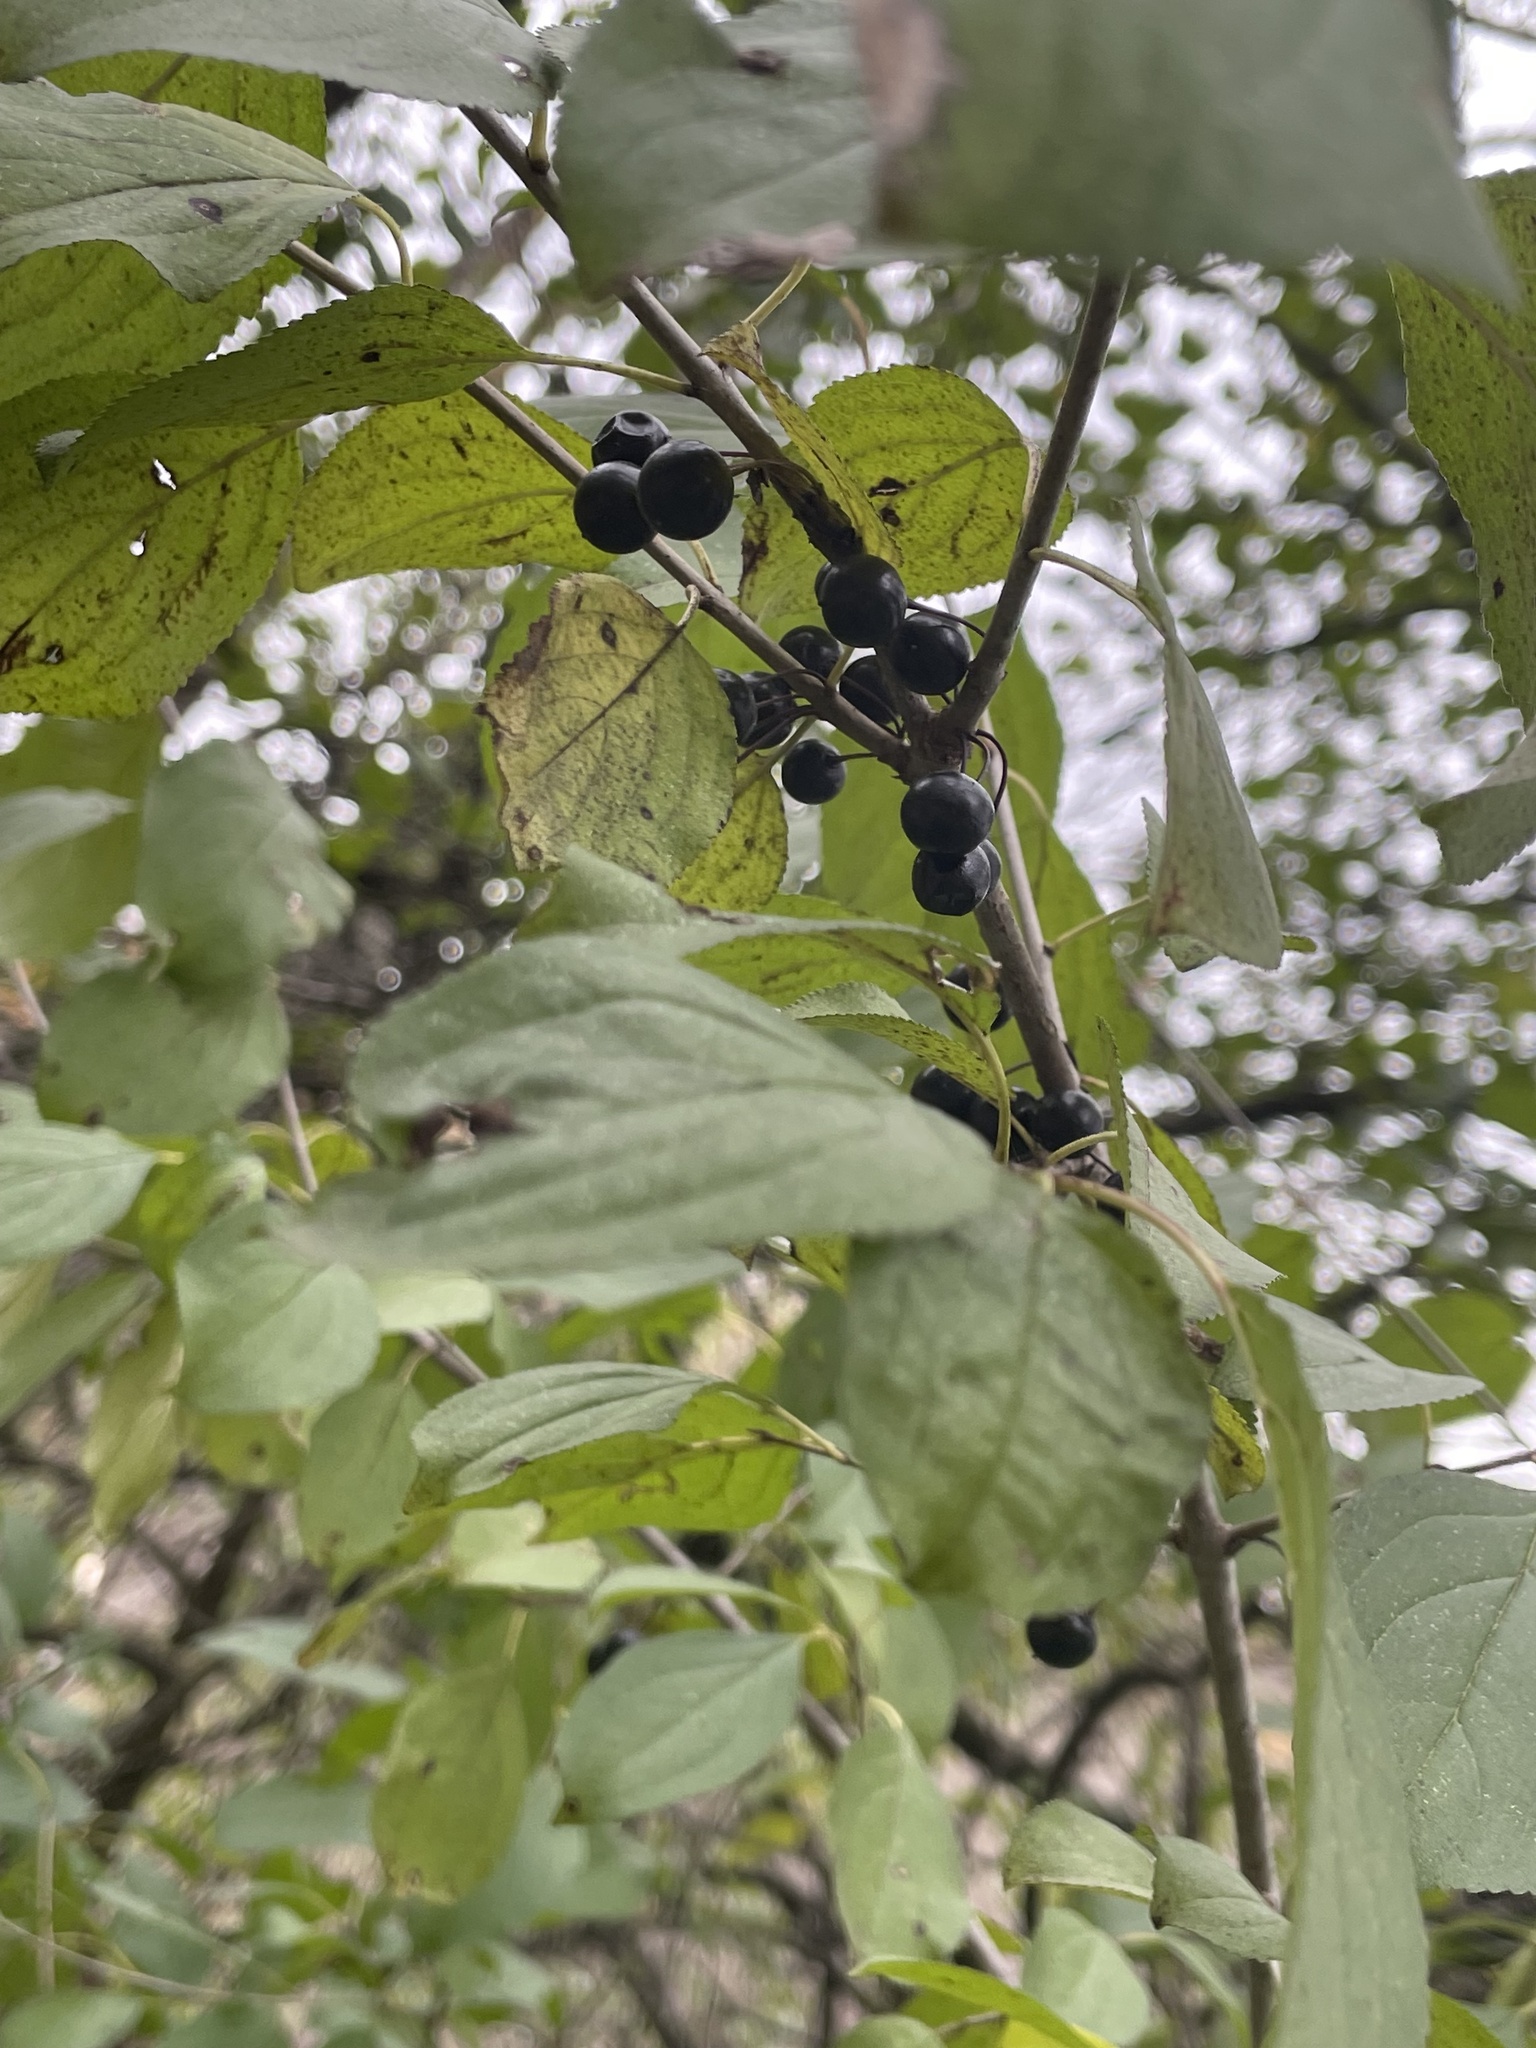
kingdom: Plantae
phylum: Tracheophyta
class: Magnoliopsida
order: Rosales
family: Rhamnaceae
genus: Rhamnus
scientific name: Rhamnus cathartica
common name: Common buckthorn
